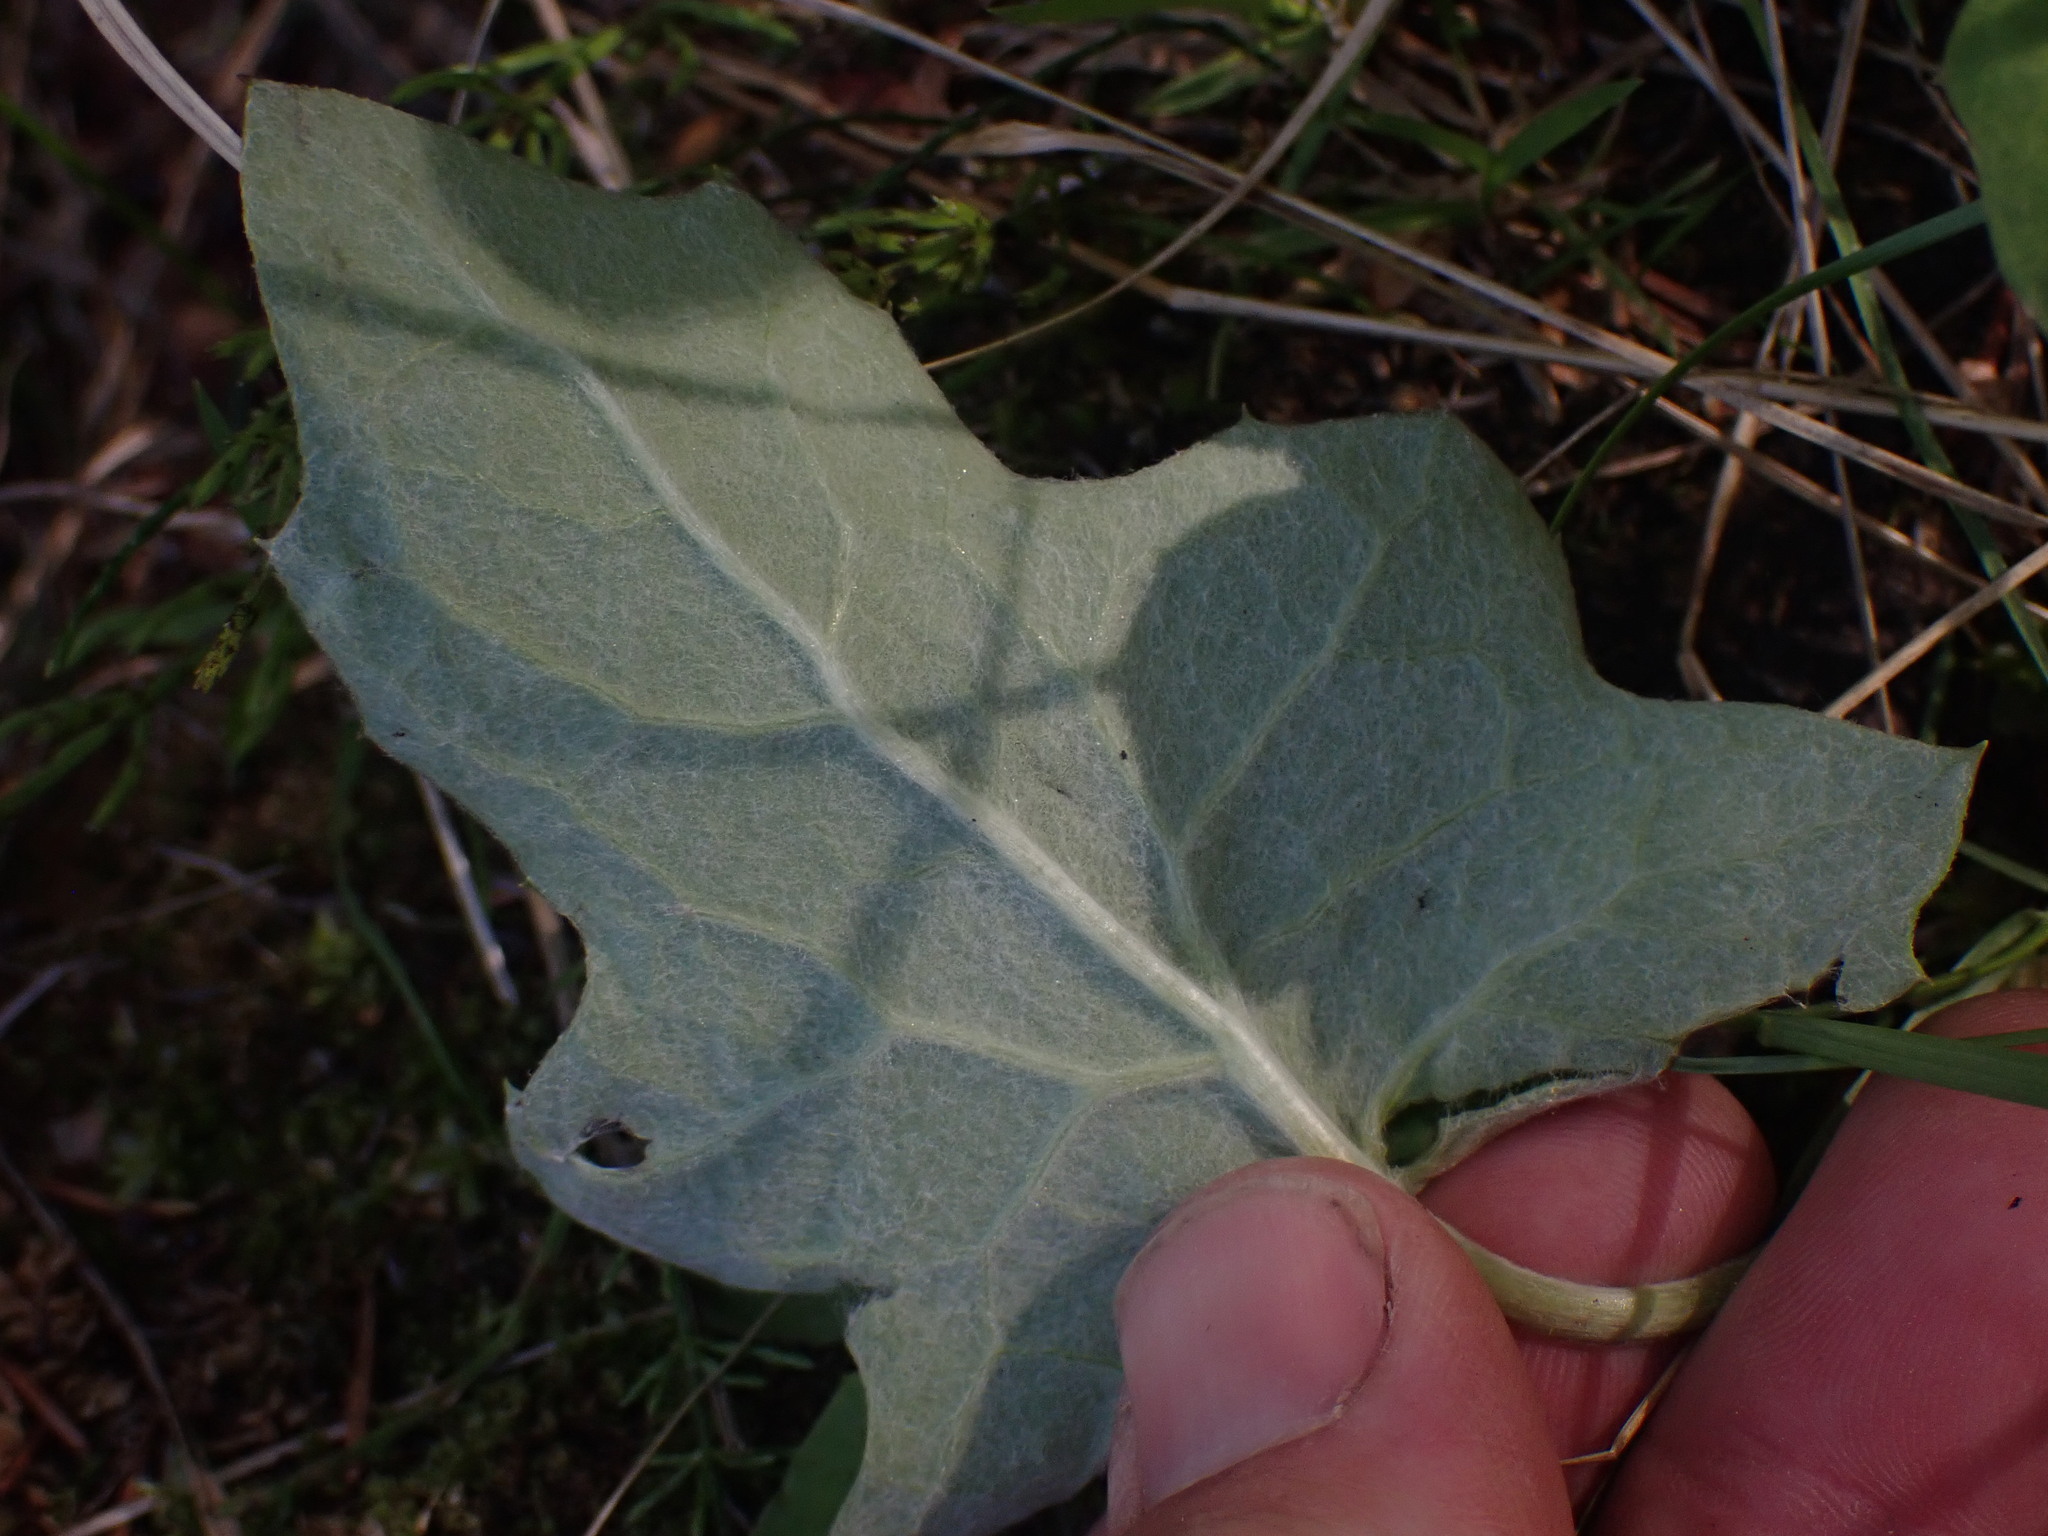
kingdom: Plantae
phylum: Tracheophyta
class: Magnoliopsida
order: Asterales
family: Asteraceae
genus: Petasites
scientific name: Petasites frigidus
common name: Arctic butterbur
